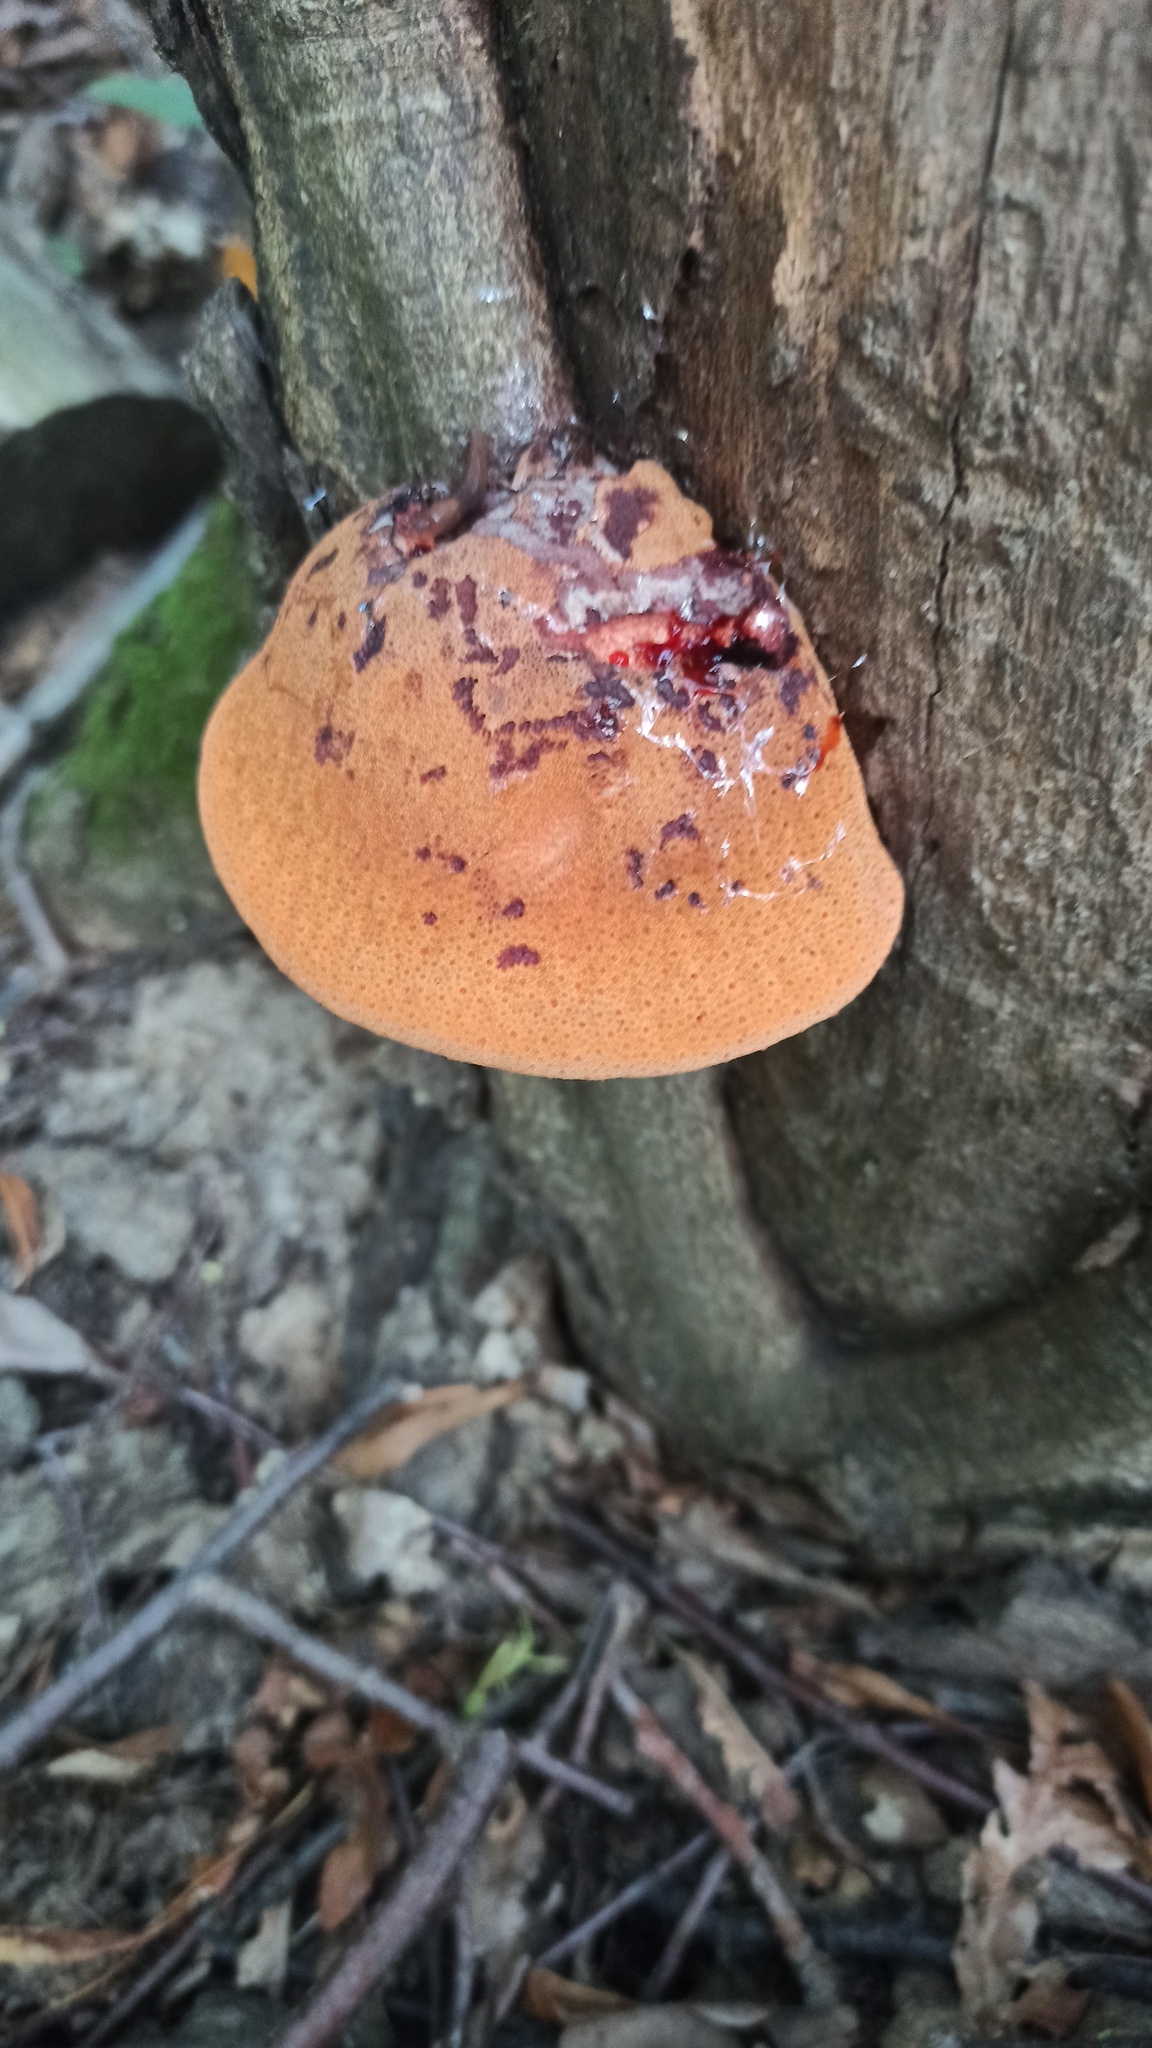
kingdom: Fungi
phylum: Basidiomycota
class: Agaricomycetes
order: Agaricales
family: Fistulinaceae
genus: Fistulina
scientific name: Fistulina hepatica
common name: Beef-steak fungus
